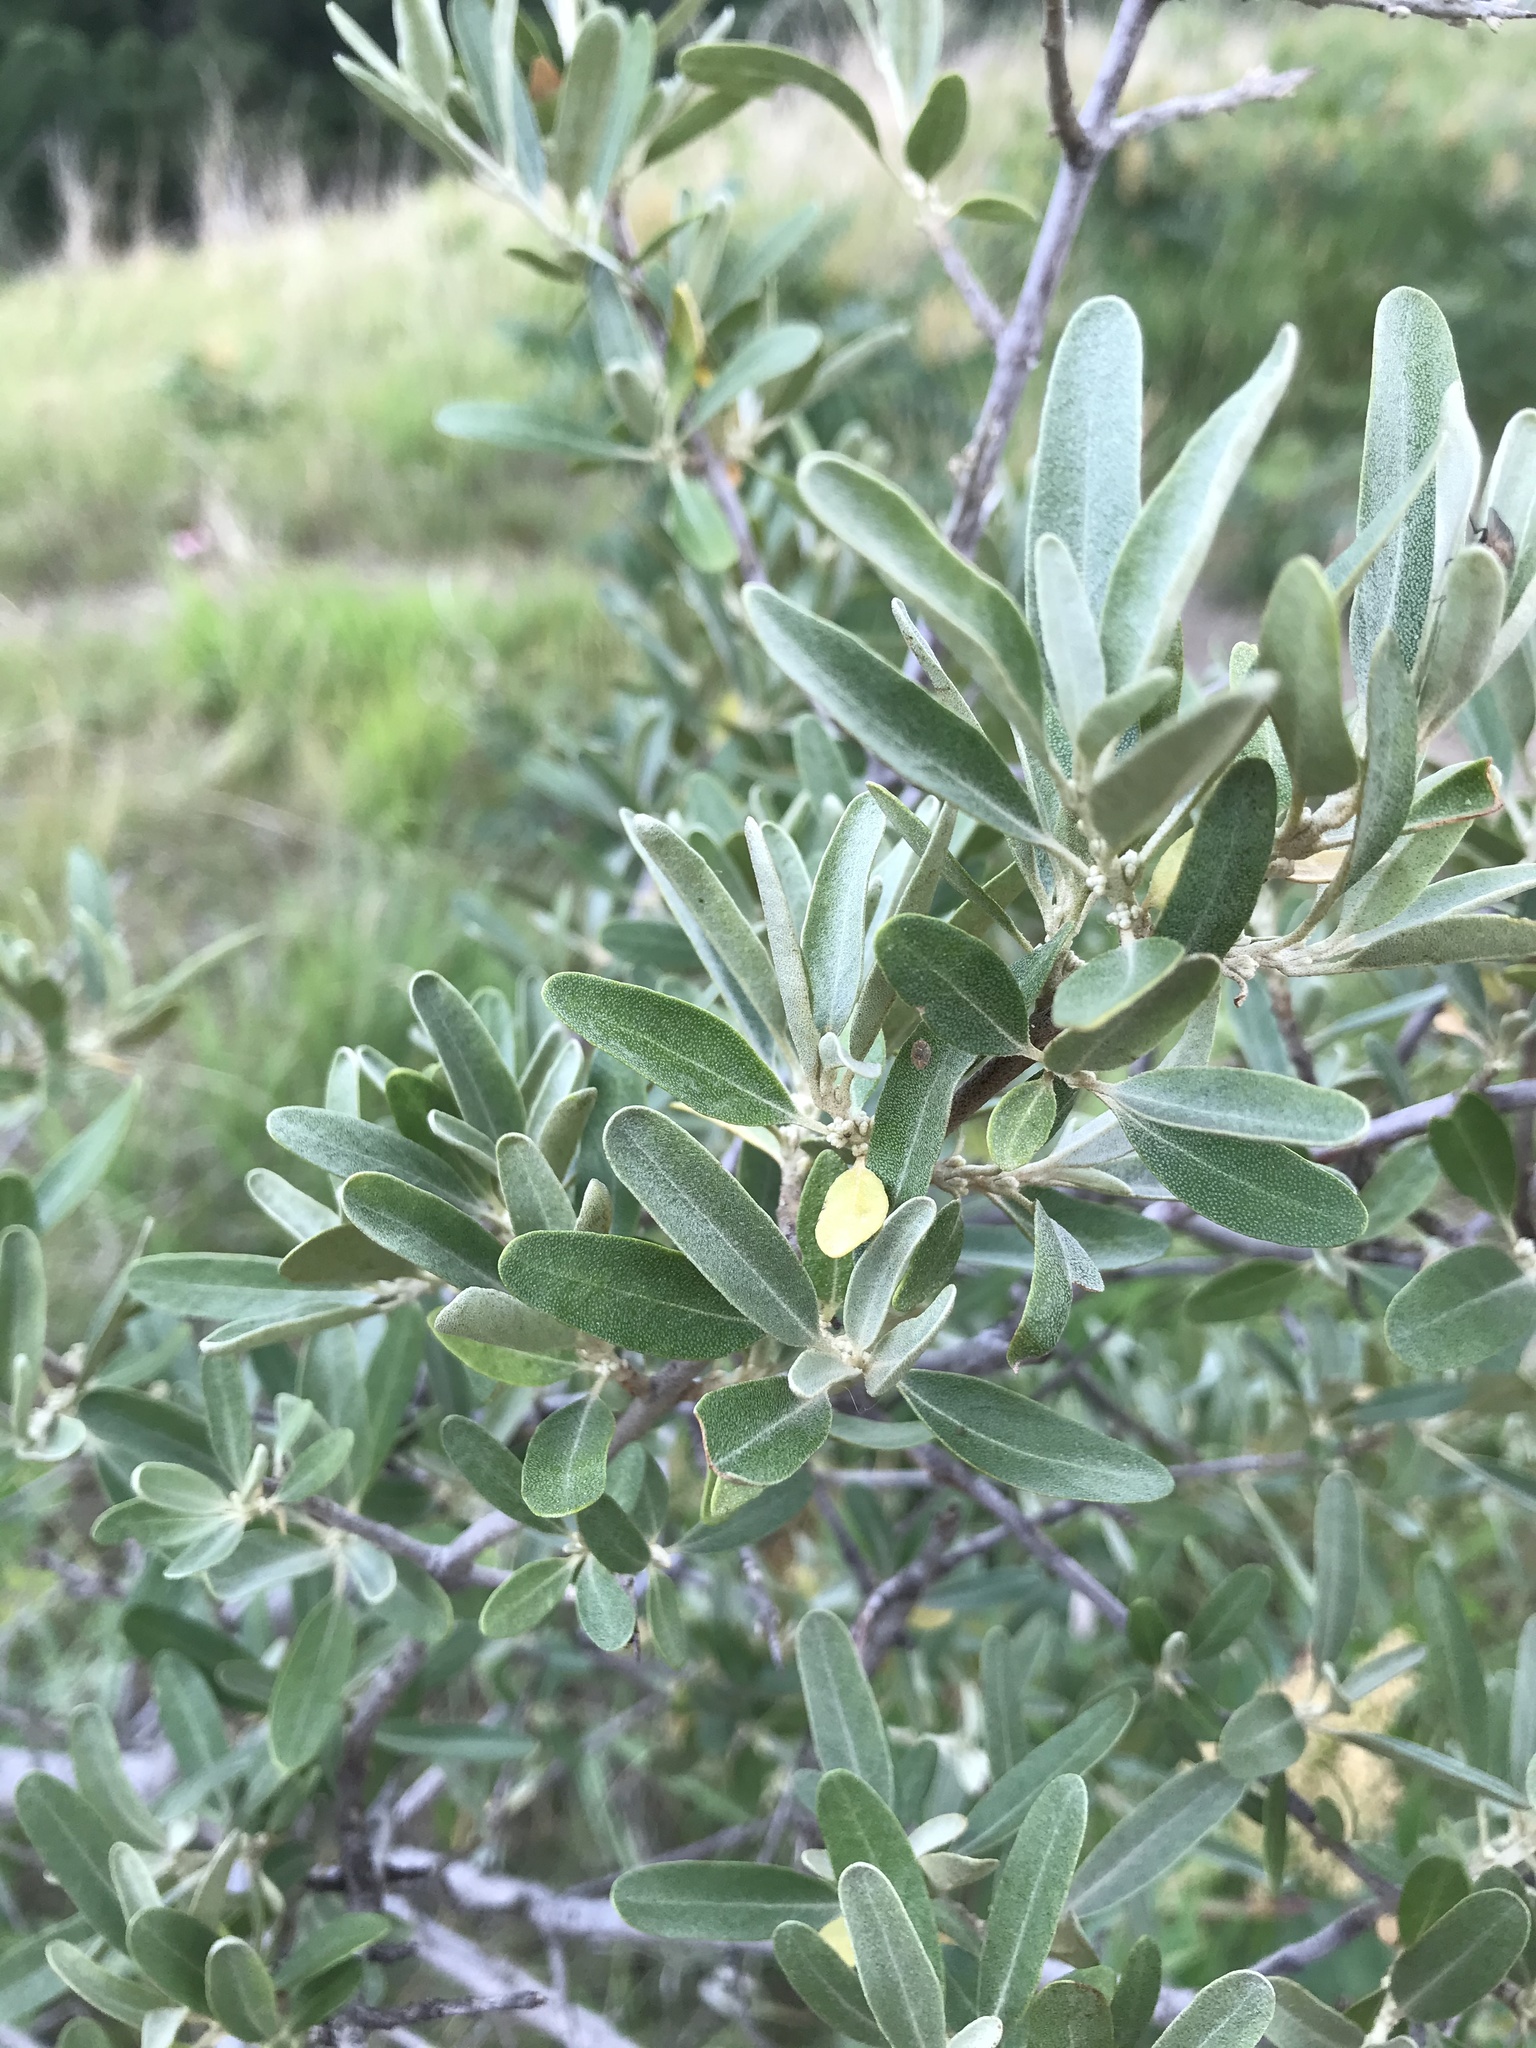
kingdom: Plantae
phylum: Tracheophyta
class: Magnoliopsida
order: Rosales
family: Elaeagnaceae
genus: Shepherdia
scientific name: Shepherdia argentea
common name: Silver buffaloberry
